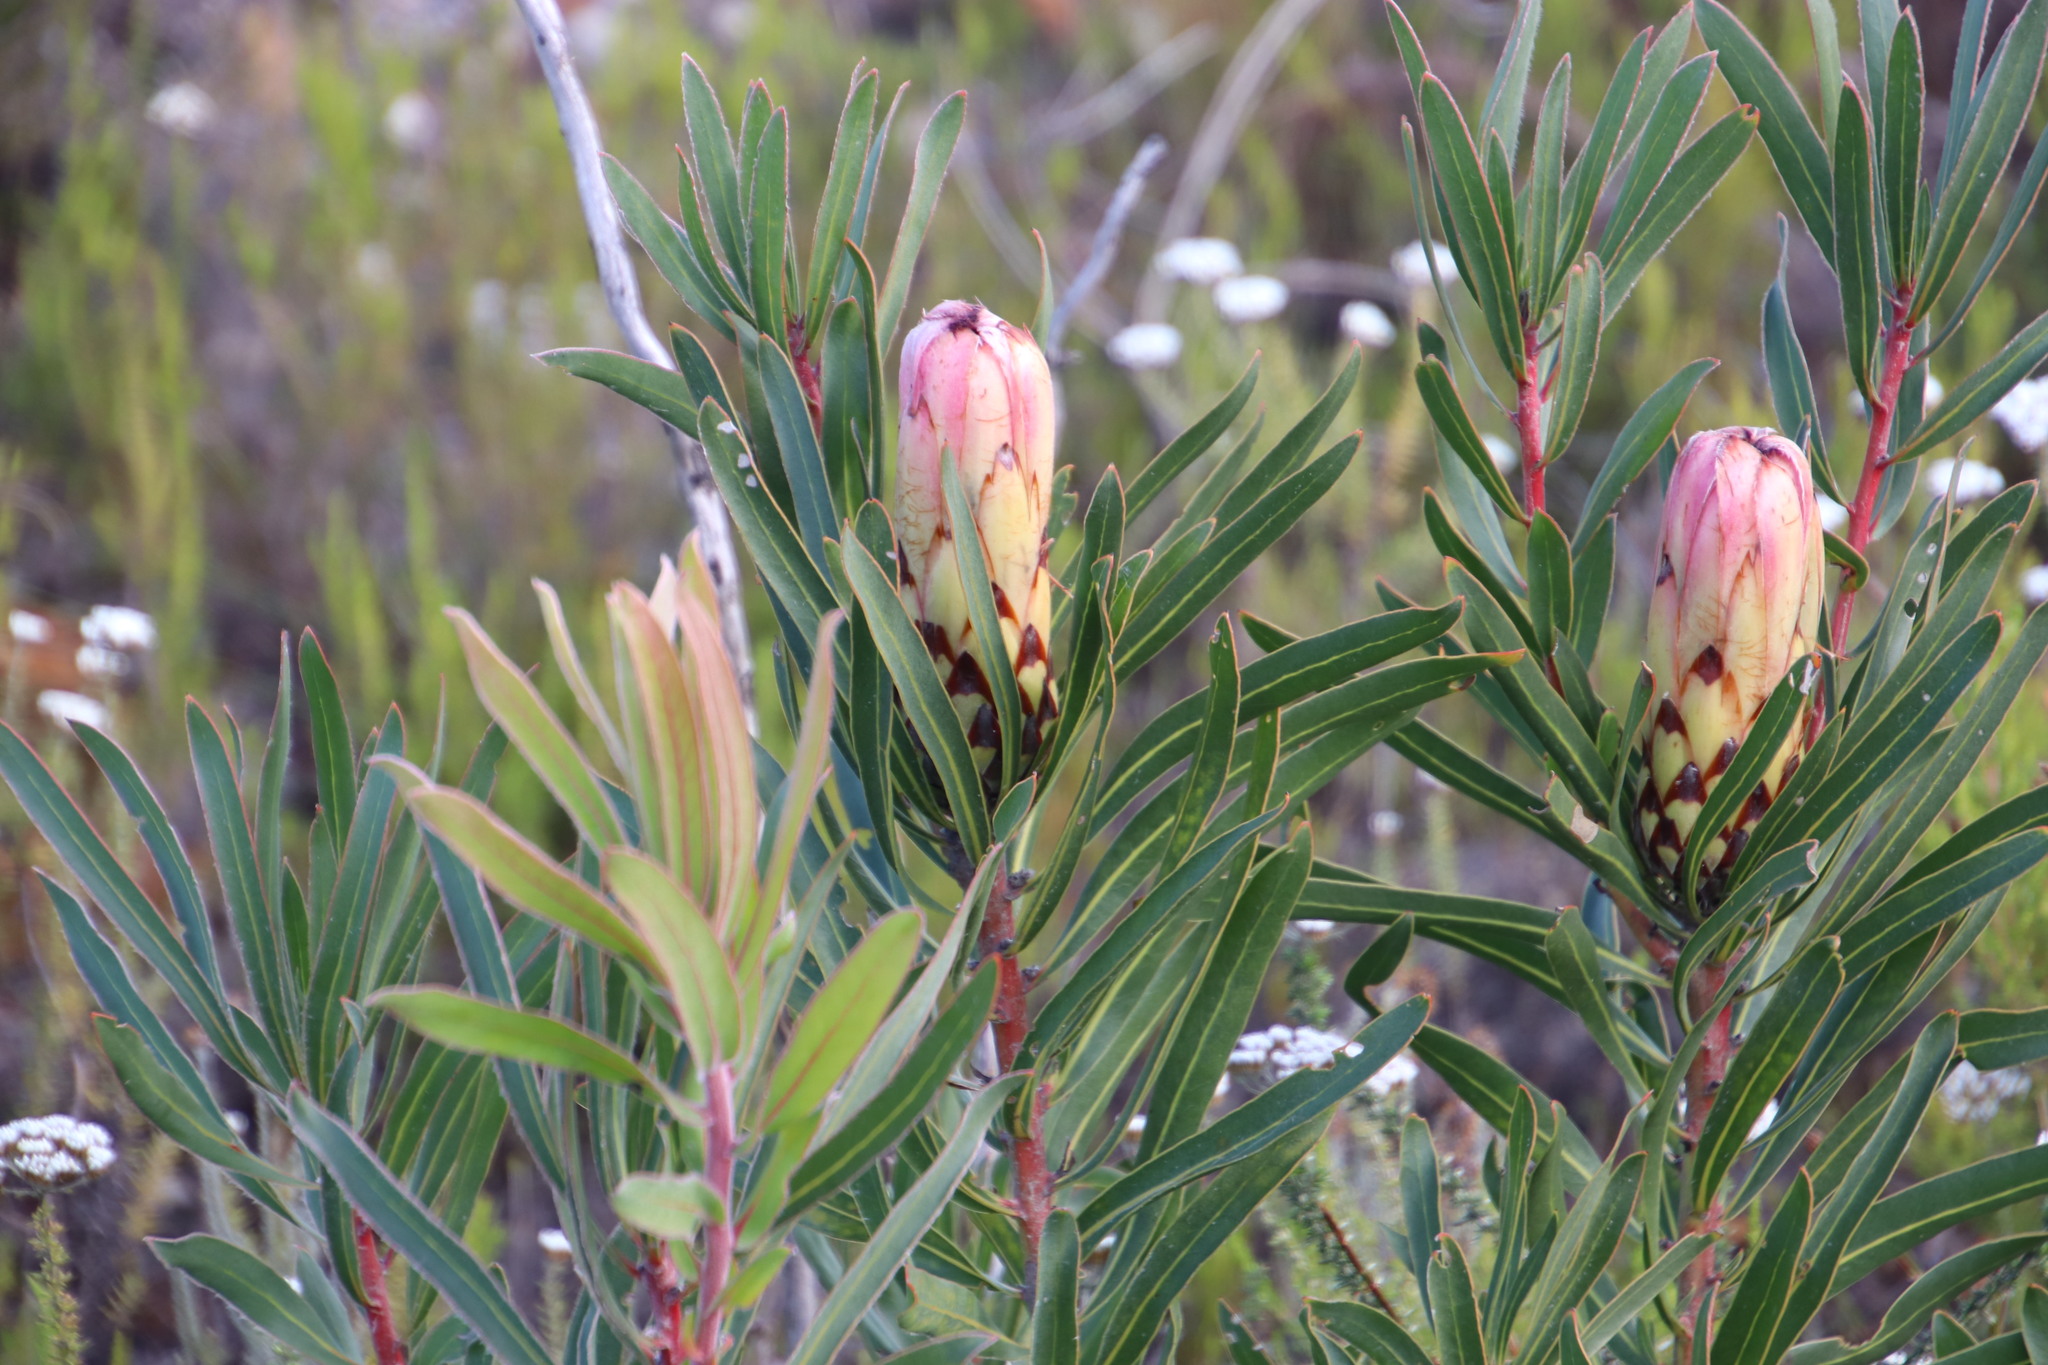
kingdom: Plantae
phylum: Tracheophyta
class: Magnoliopsida
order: Proteales
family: Proteaceae
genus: Protea
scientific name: Protea
